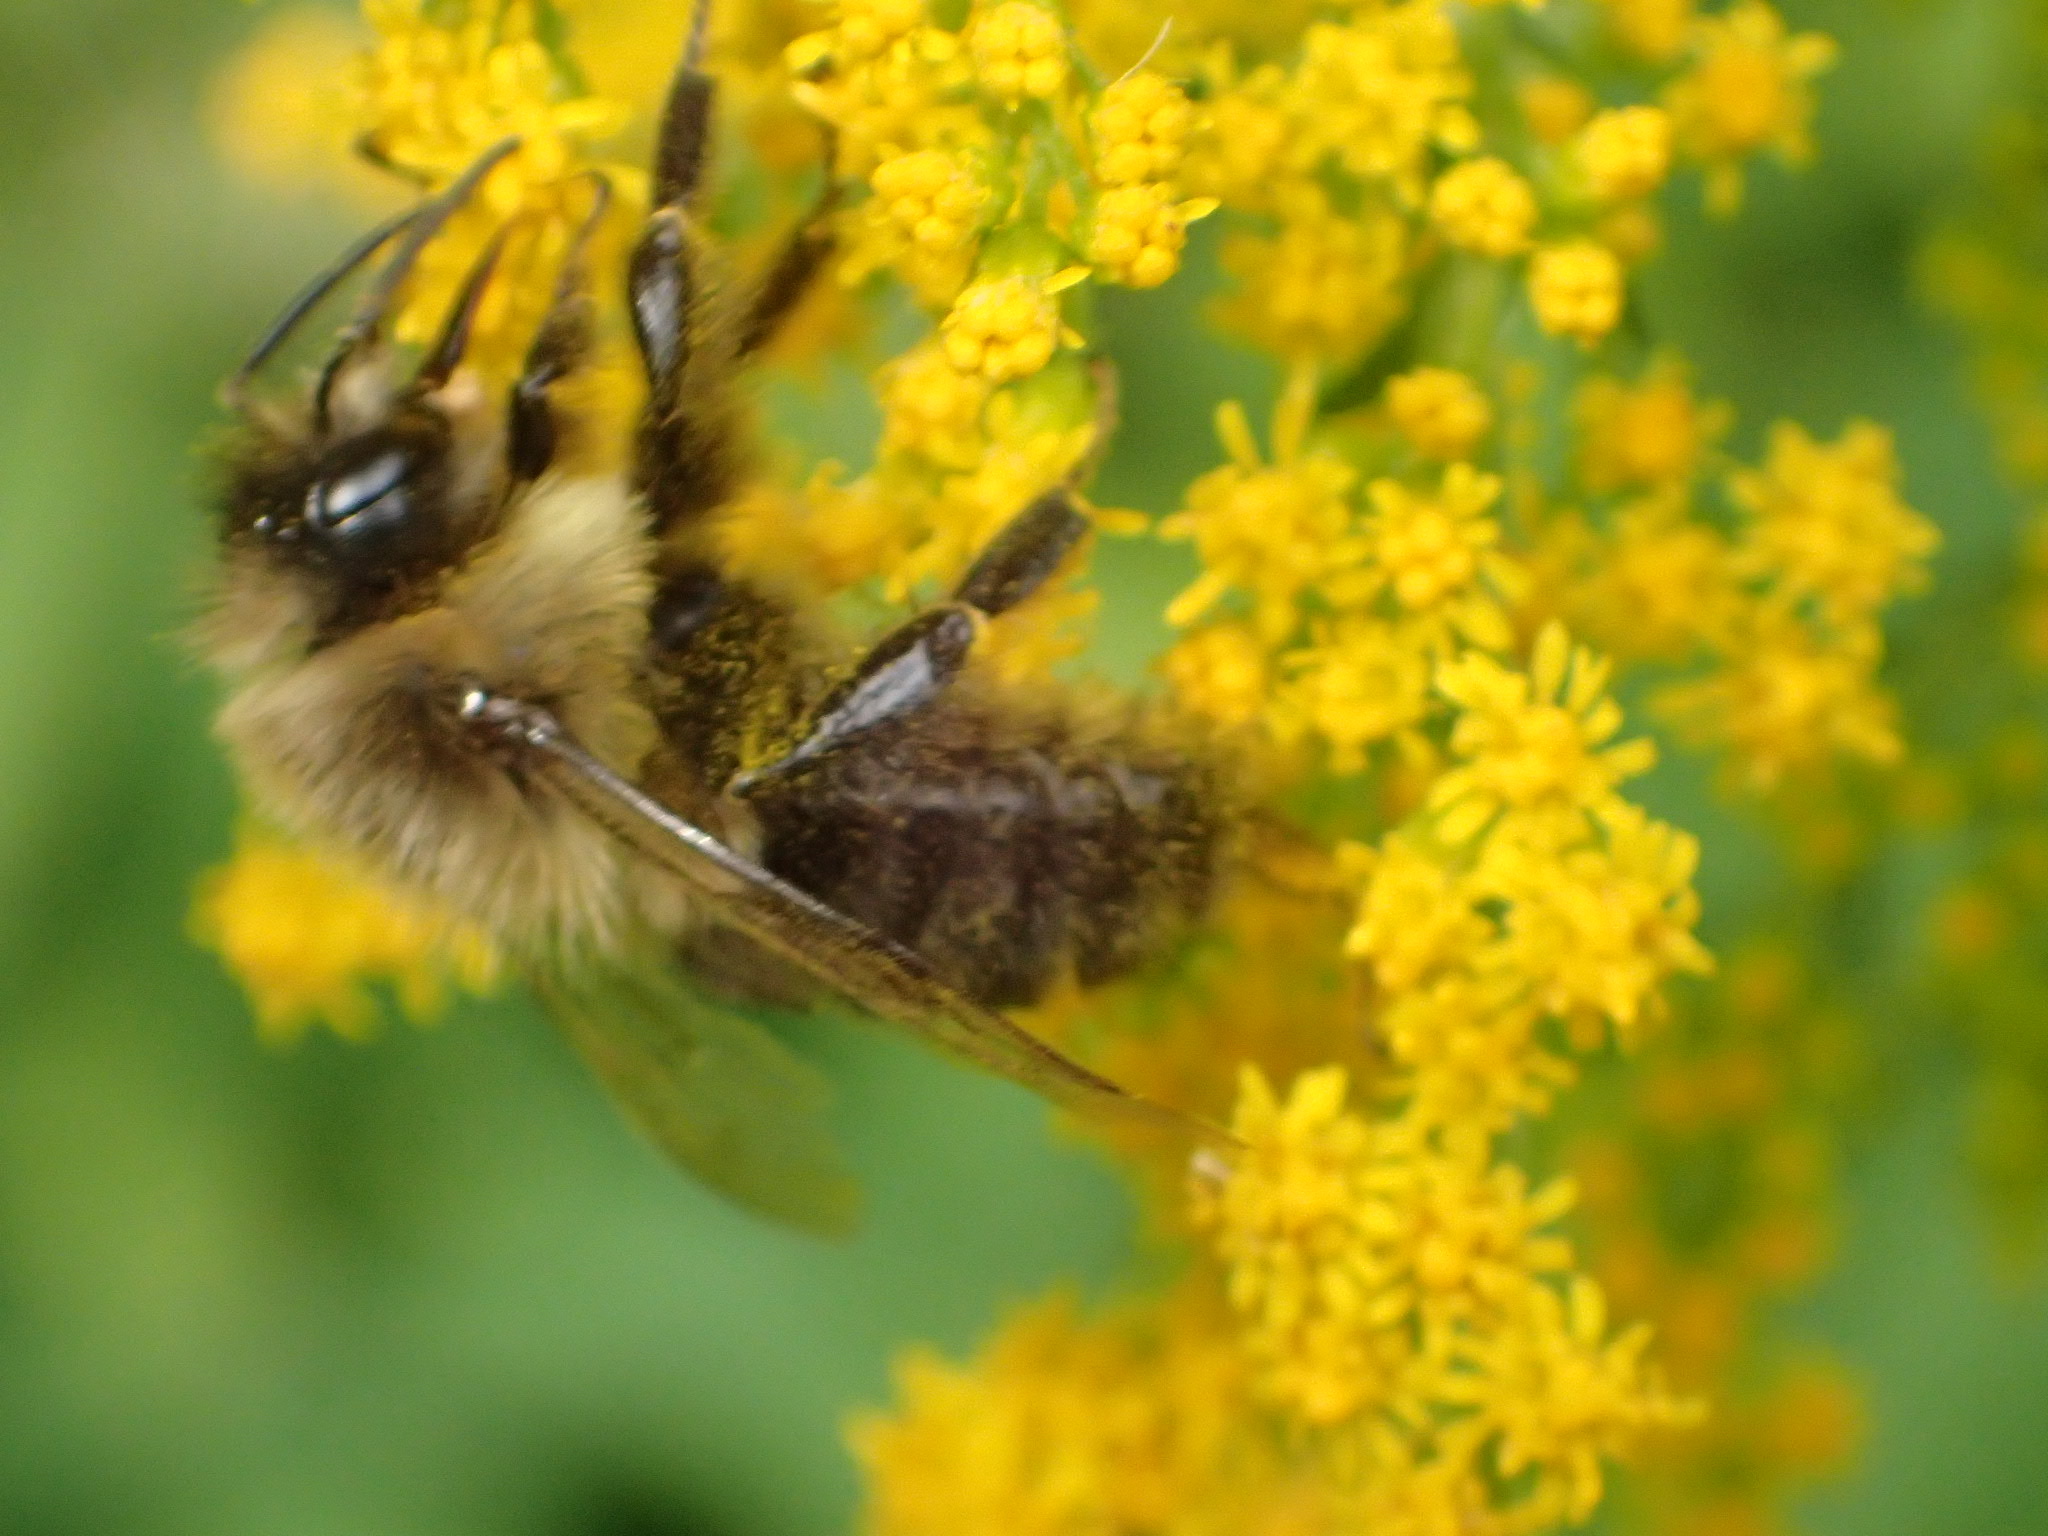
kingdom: Animalia
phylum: Arthropoda
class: Insecta
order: Hymenoptera
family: Apidae
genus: Bombus
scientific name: Bombus impatiens
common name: Common eastern bumble bee
